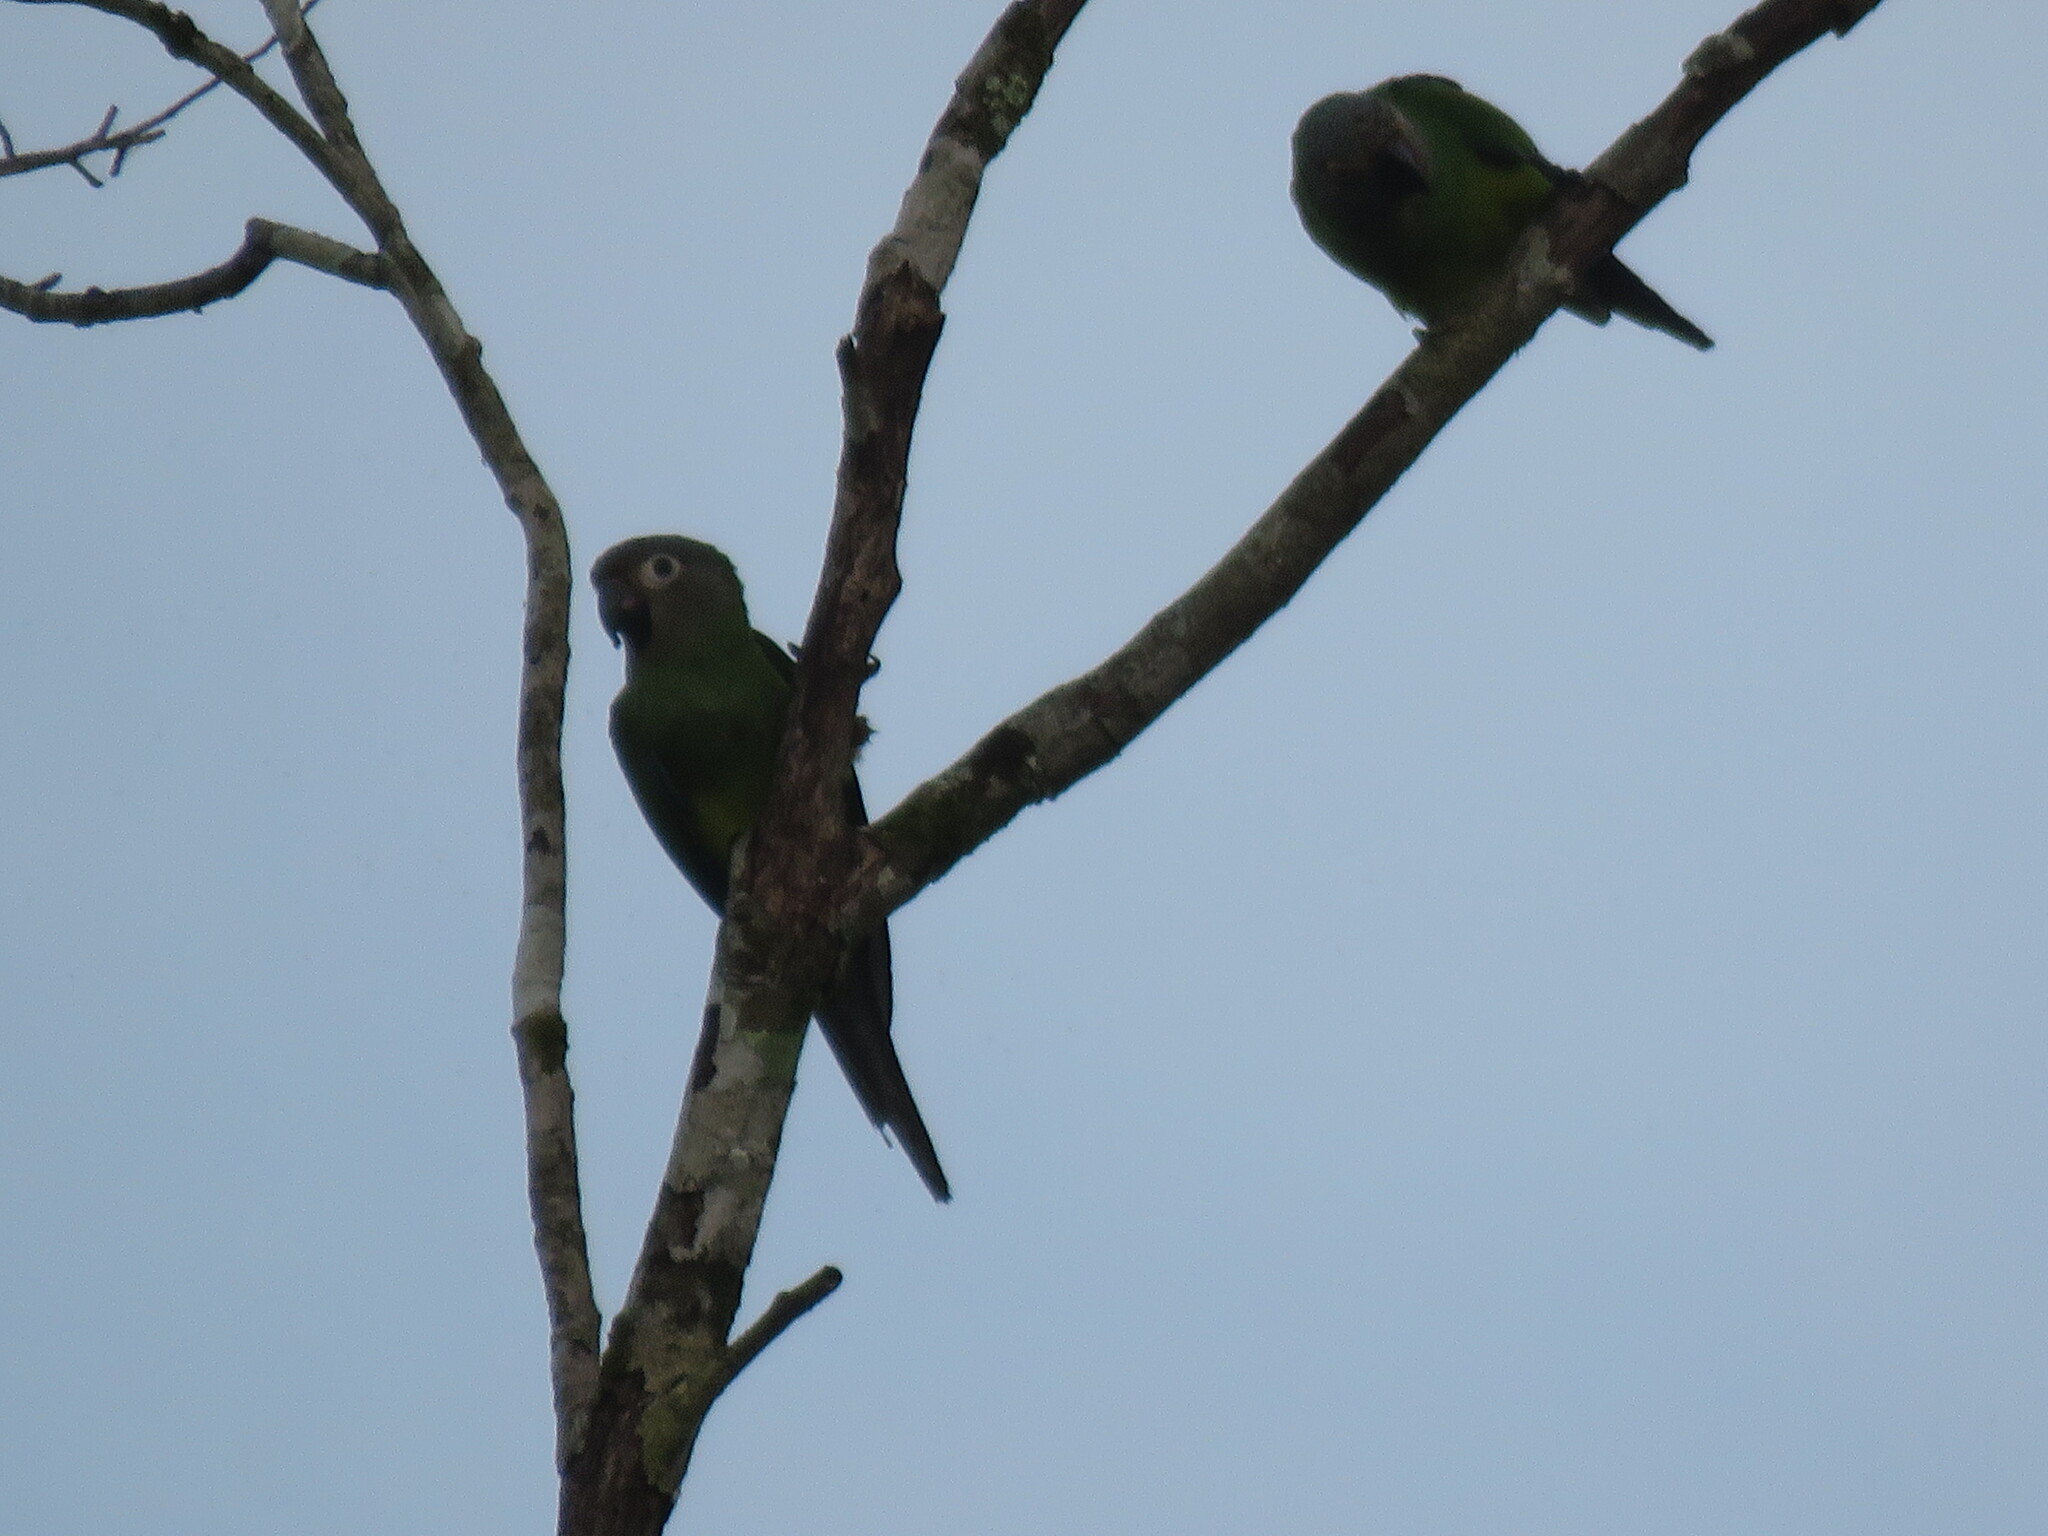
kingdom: Animalia
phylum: Chordata
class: Aves
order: Psittaciformes
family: Psittacidae
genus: Aratinga
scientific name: Aratinga weddellii
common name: Dusky-headed parakeet
